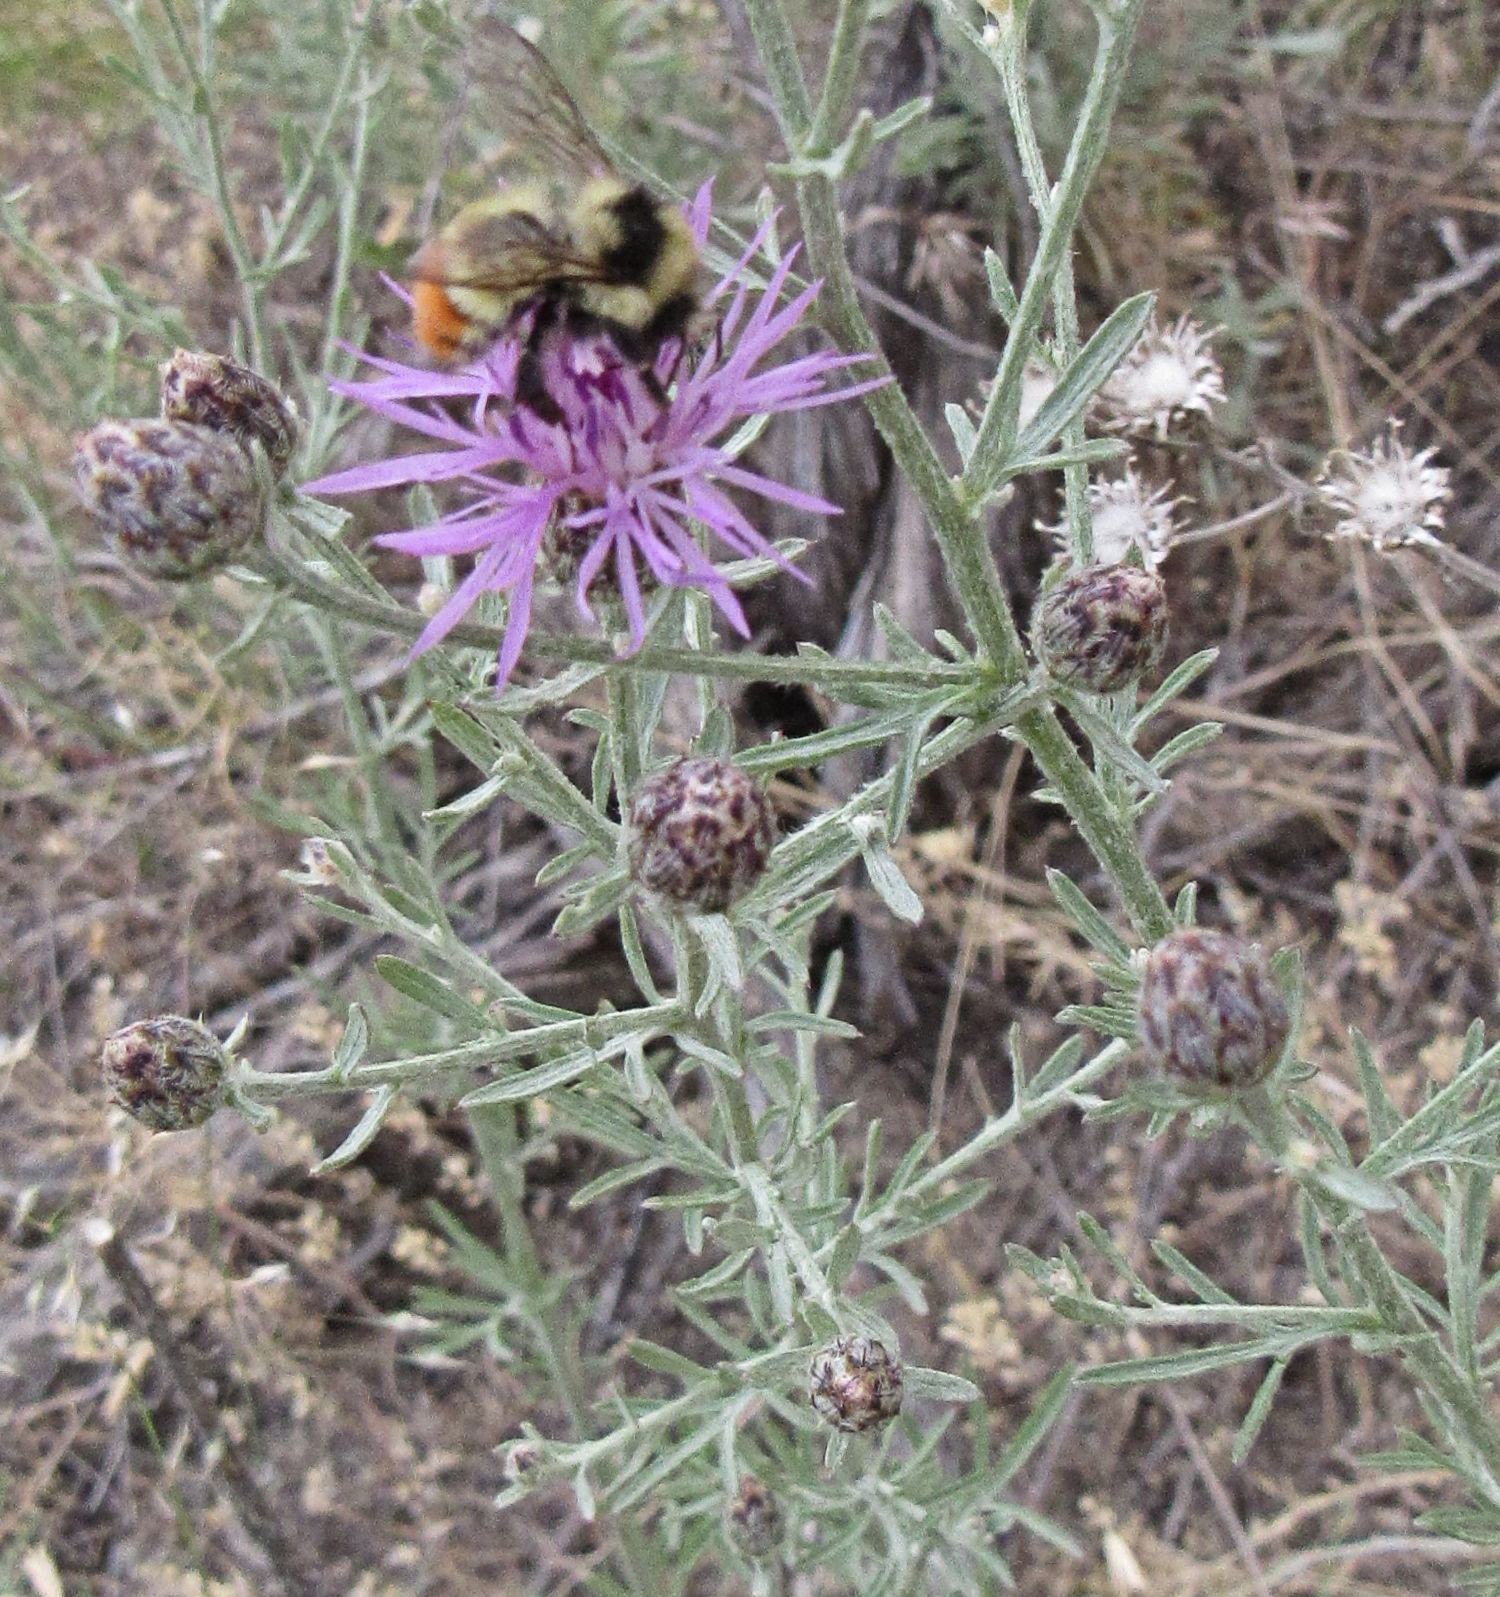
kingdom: Animalia
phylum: Arthropoda
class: Insecta
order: Hymenoptera
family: Apidae
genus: Bombus
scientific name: Bombus centralis
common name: Central bumble bee
